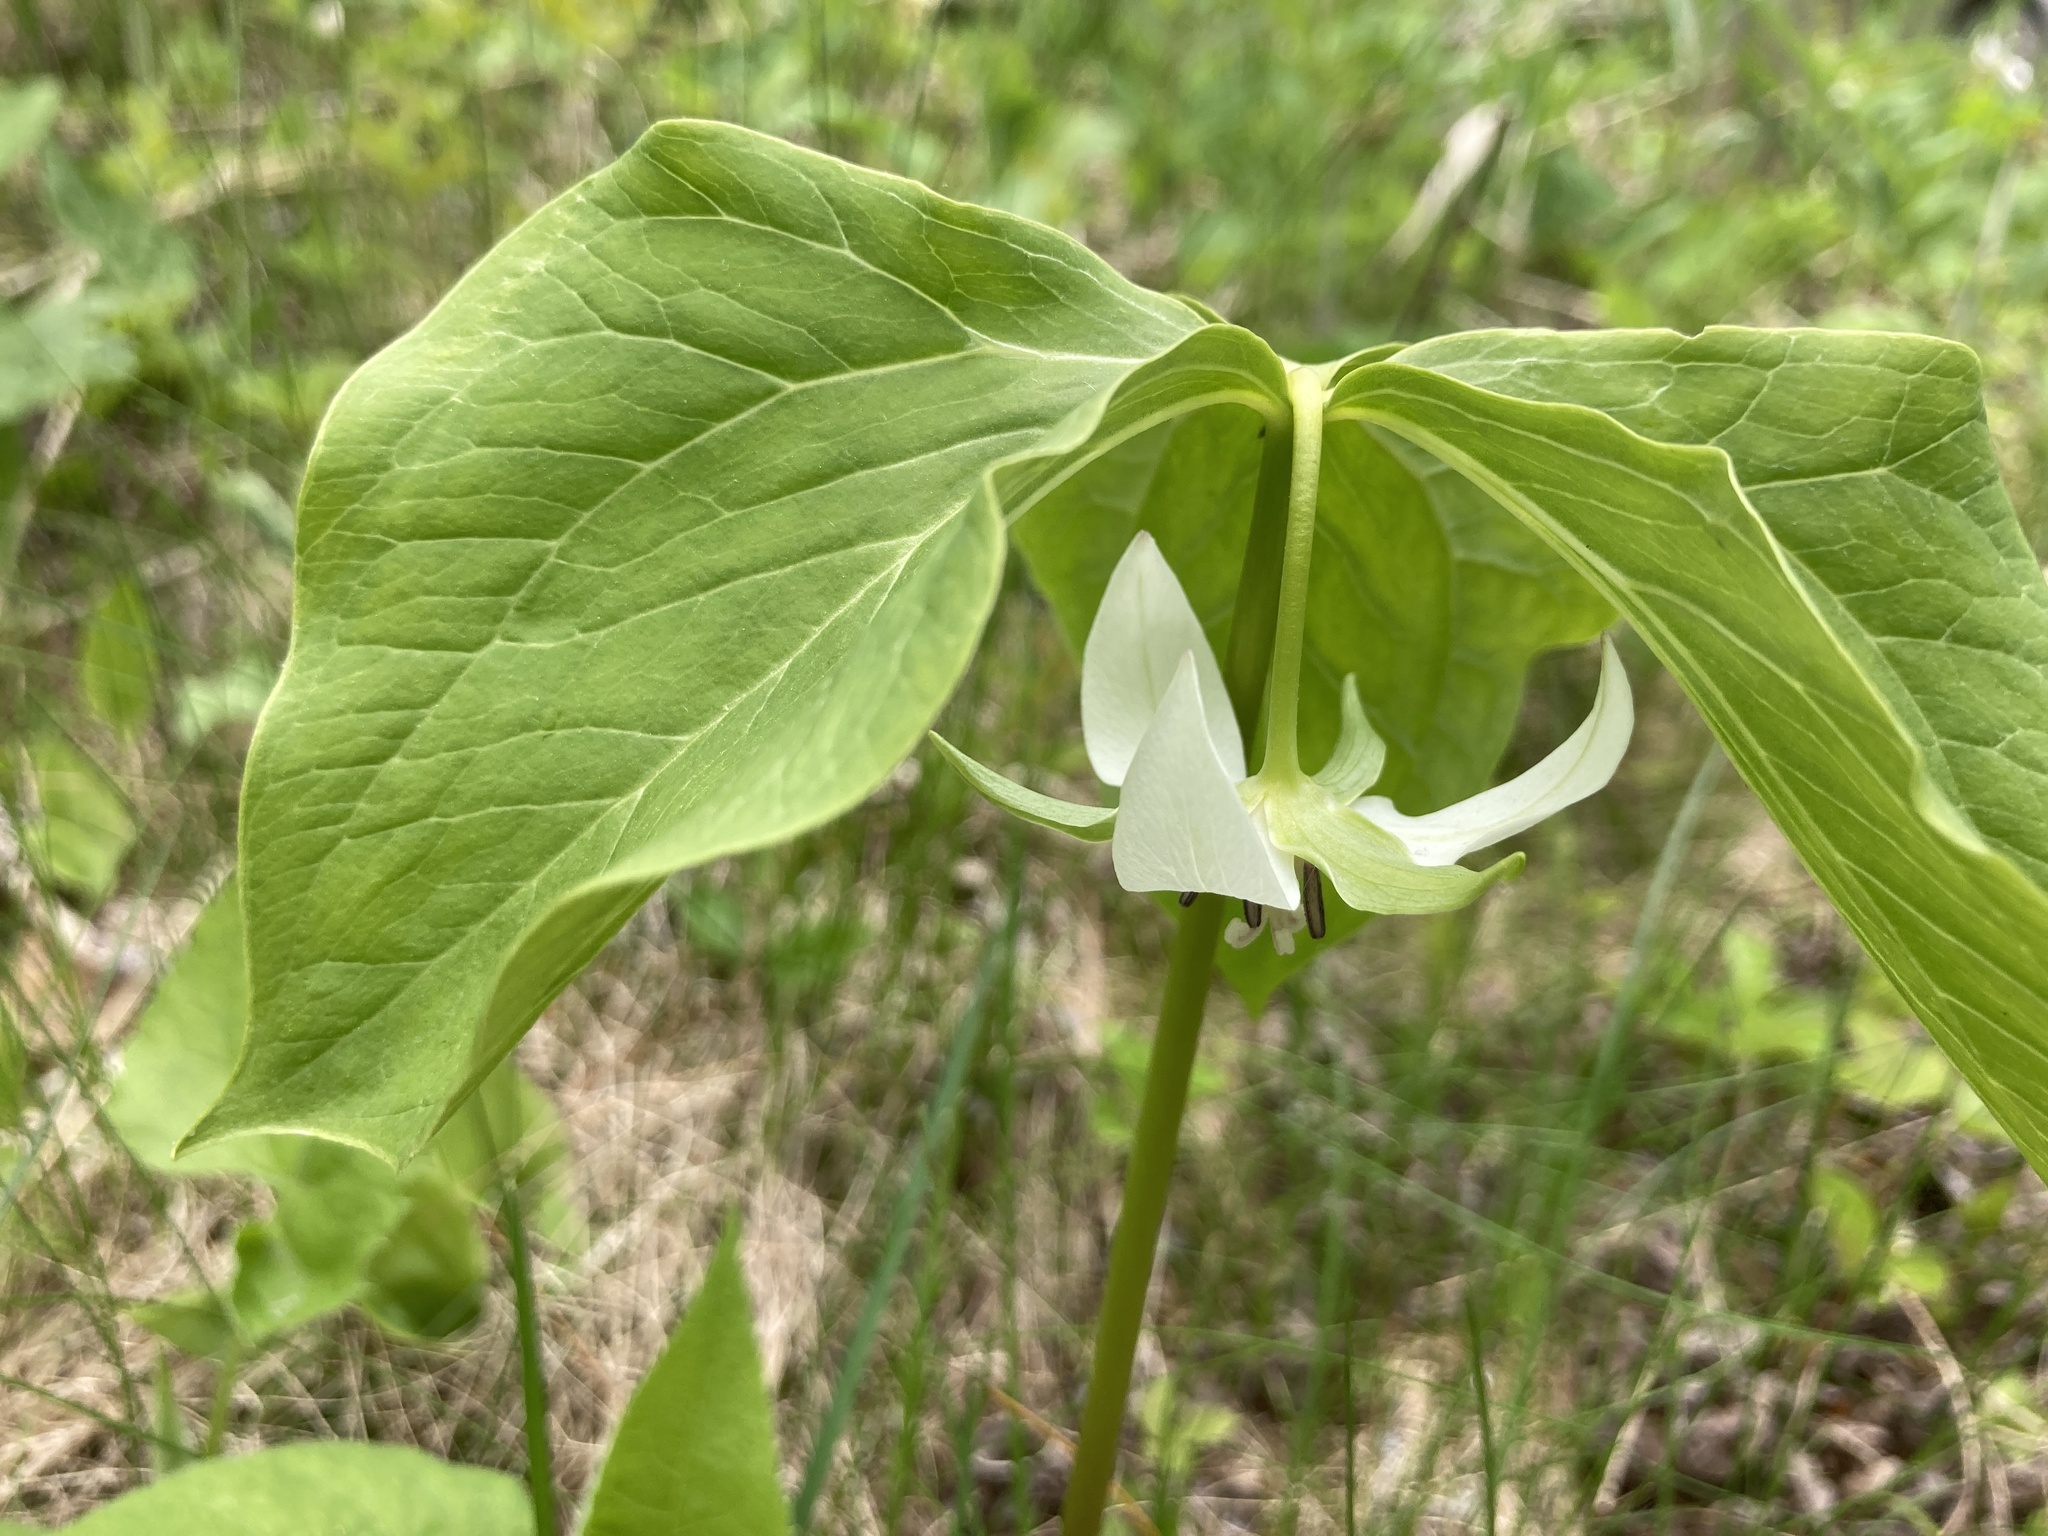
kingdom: Plantae
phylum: Tracheophyta
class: Liliopsida
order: Liliales
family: Melanthiaceae
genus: Trillium
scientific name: Trillium cernuum
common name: Nodding trillium
